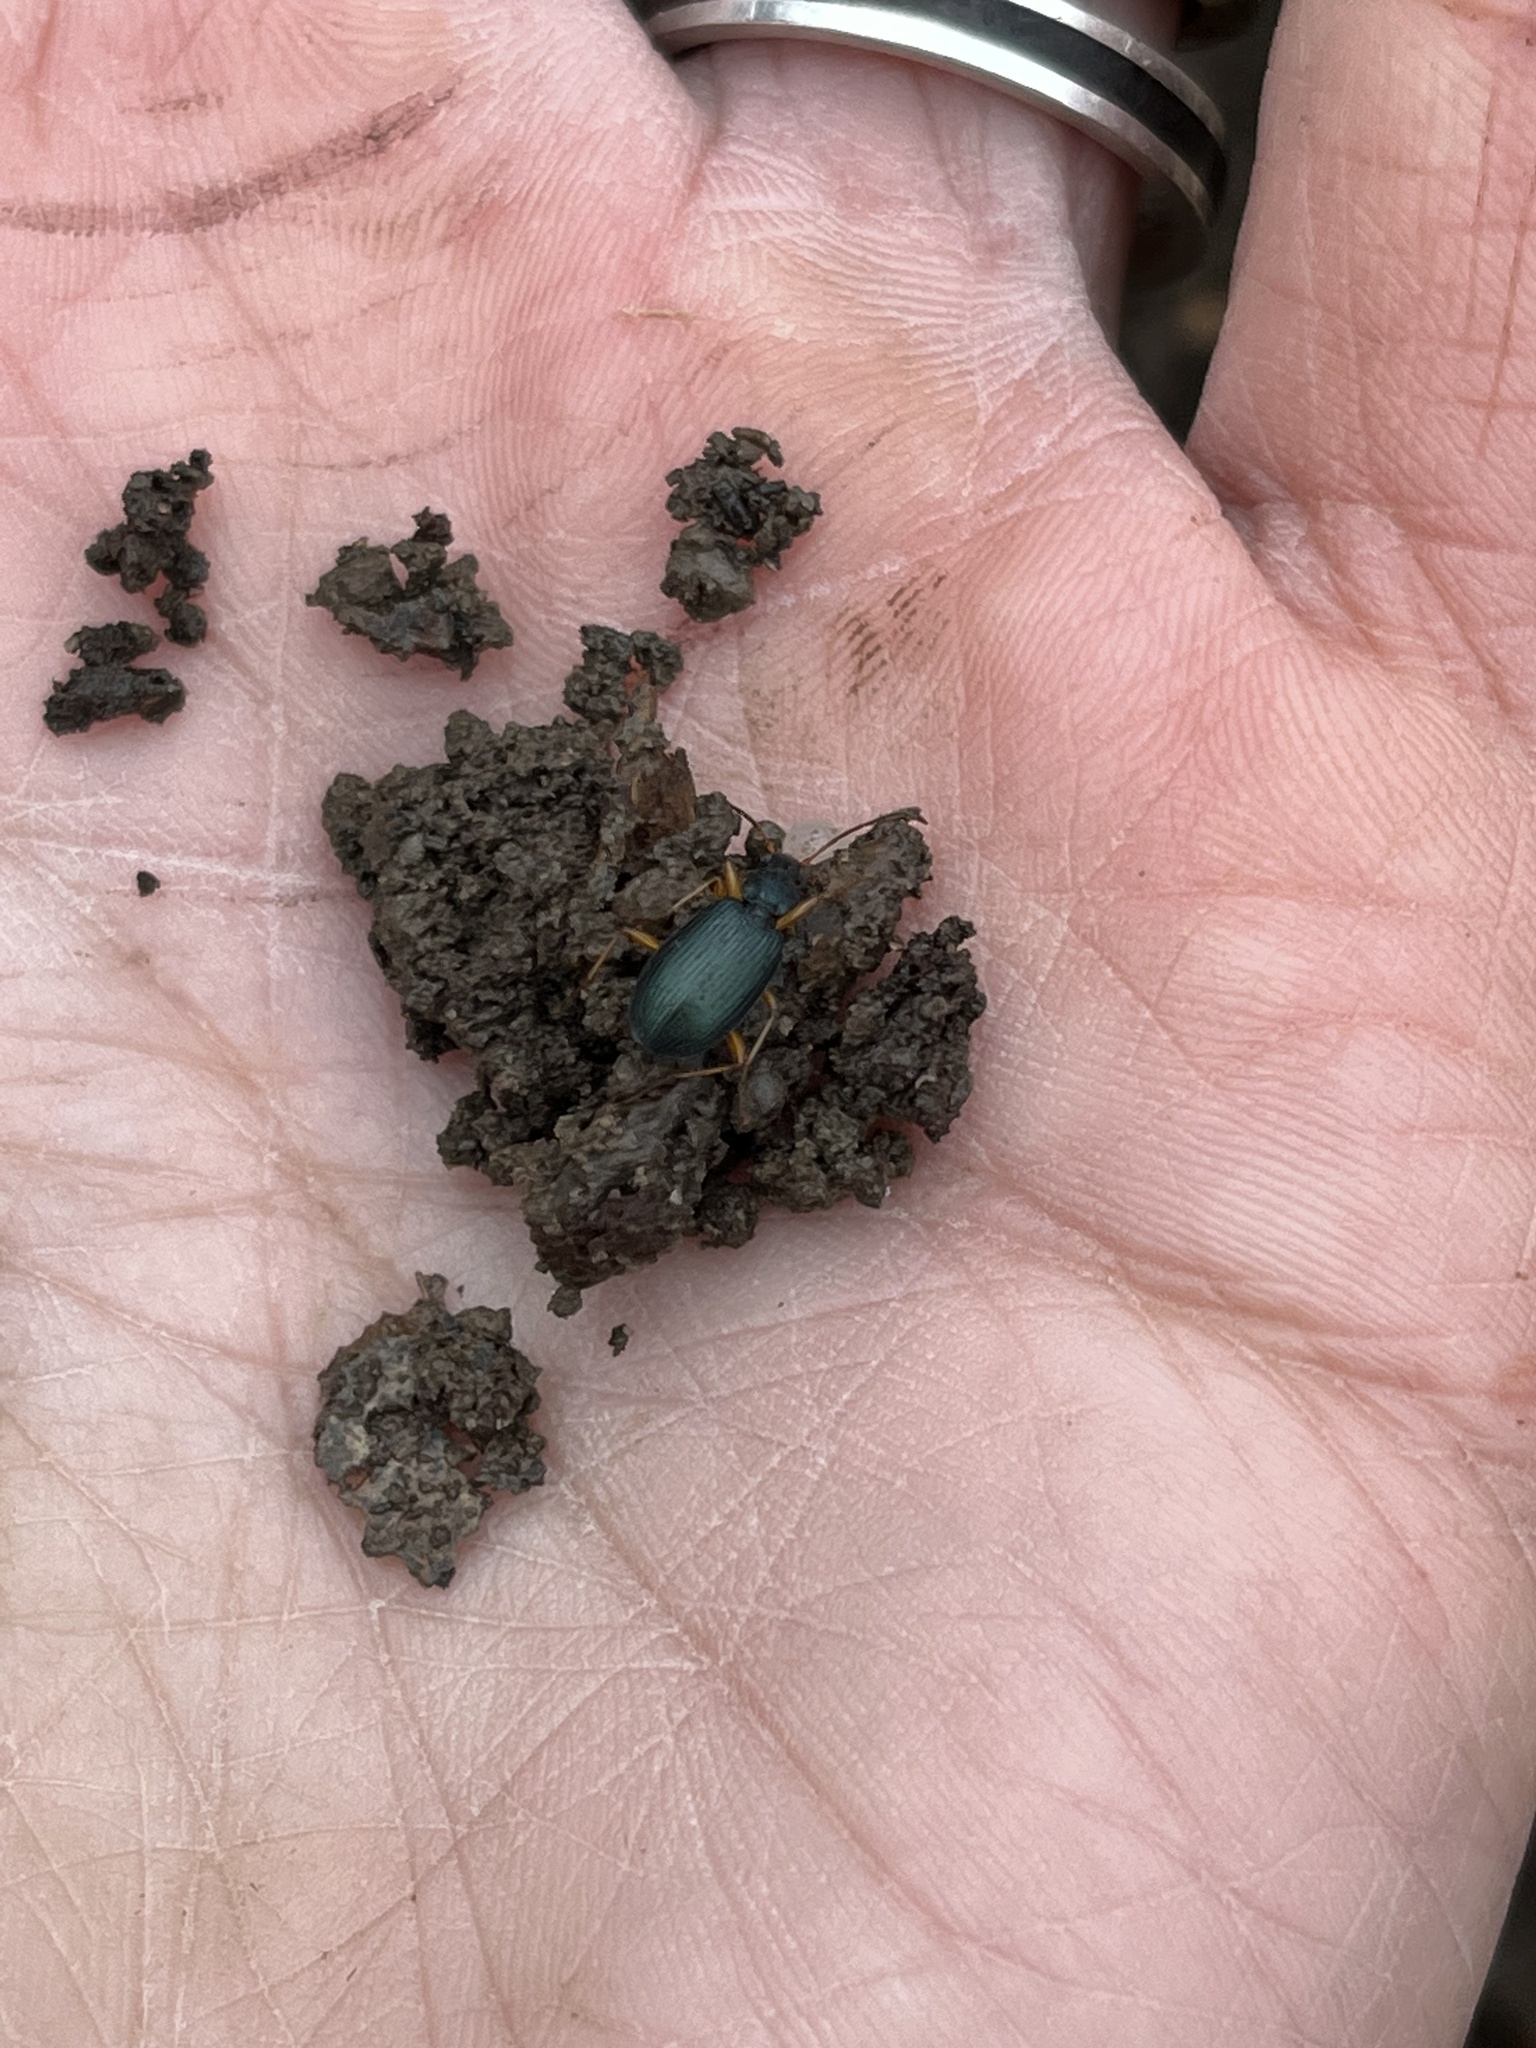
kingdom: Animalia
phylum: Arthropoda
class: Insecta
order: Coleoptera
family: Carabidae
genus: Agonum
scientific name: Agonum extensicolle
